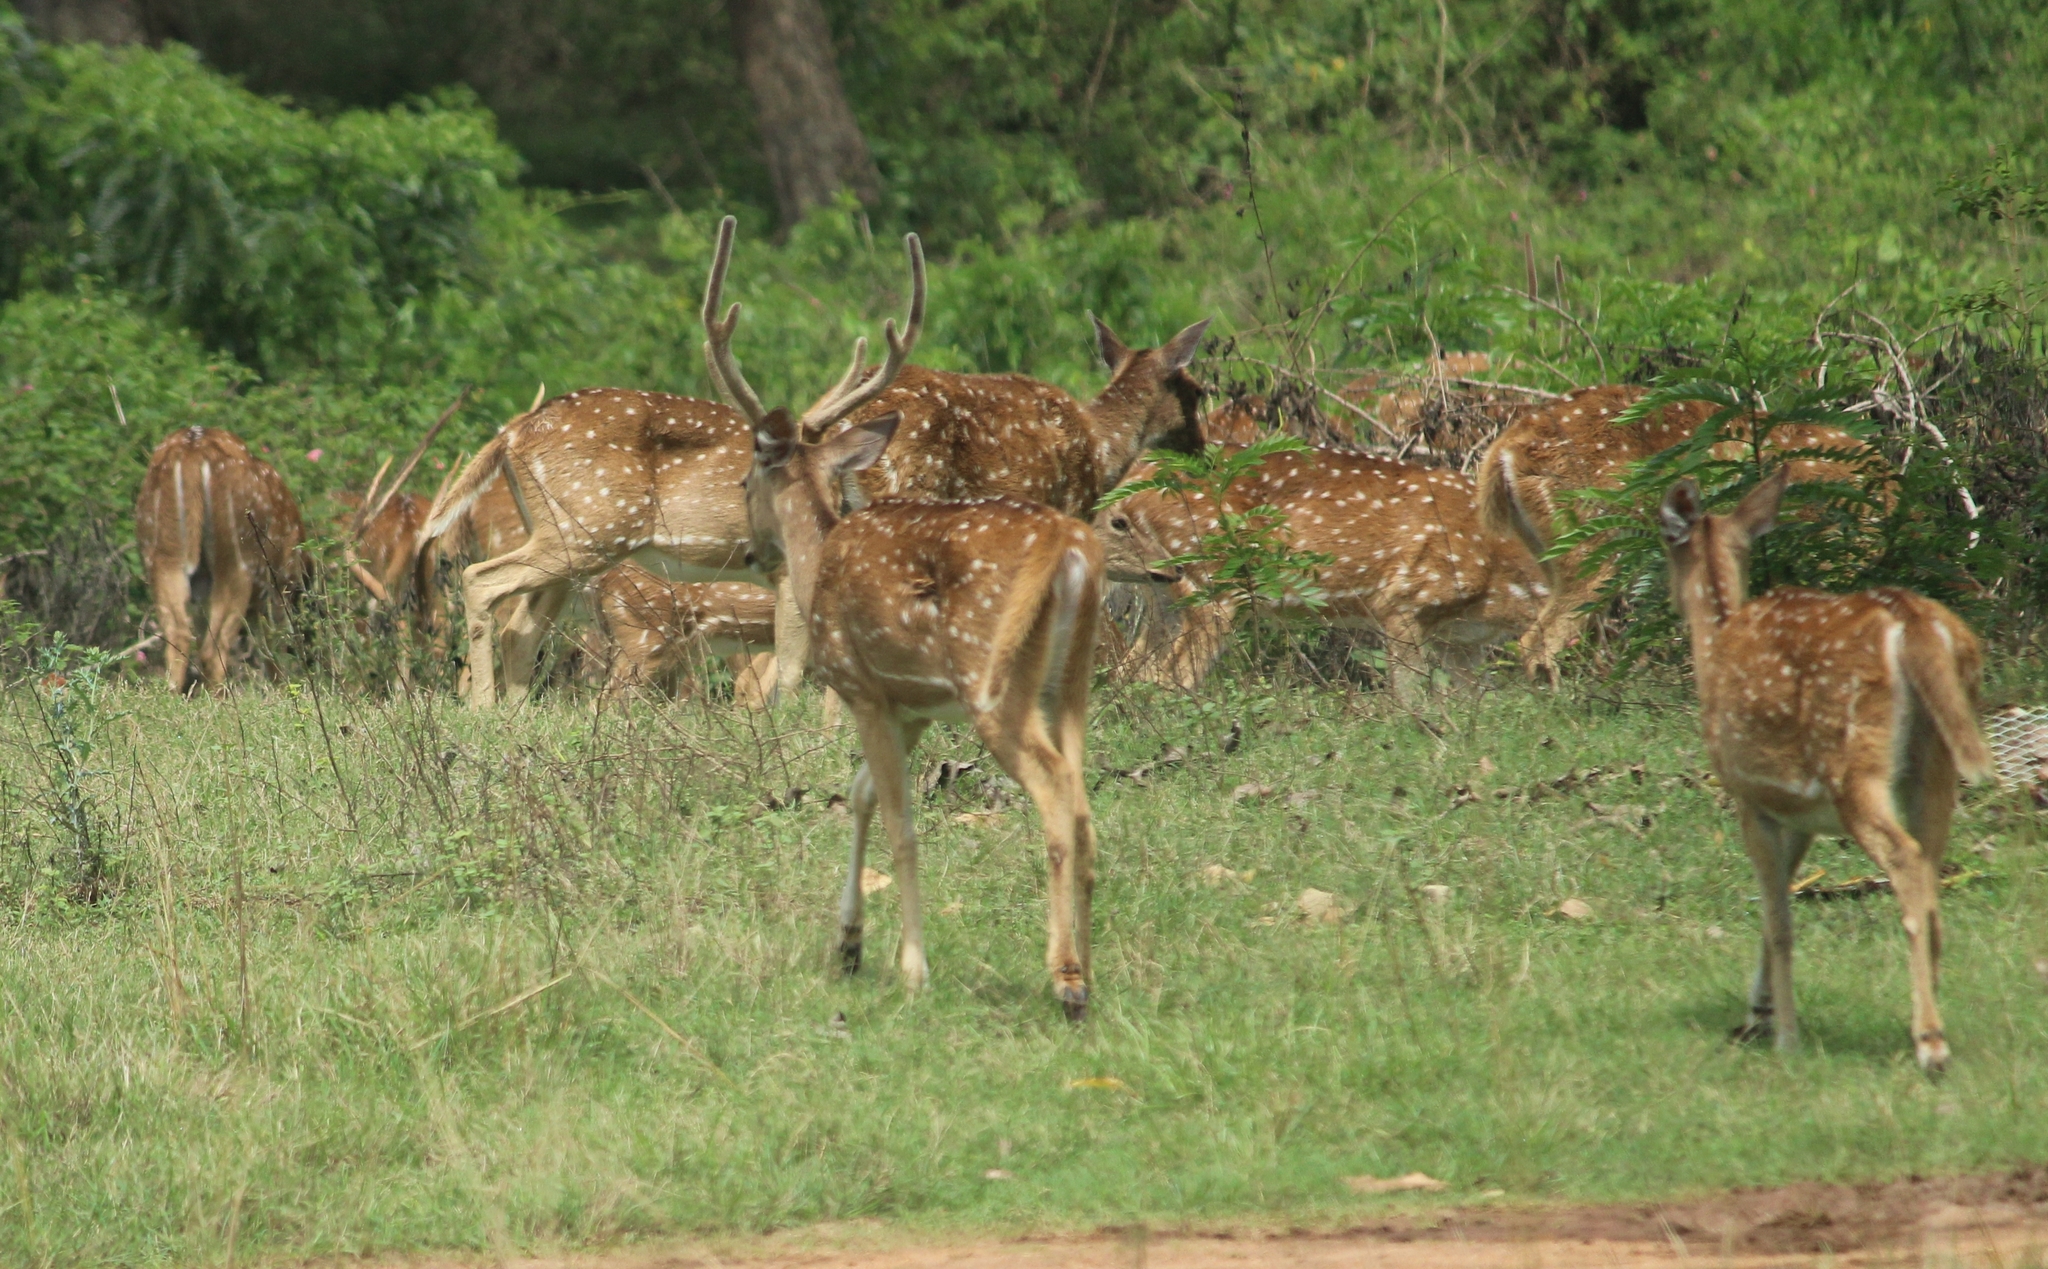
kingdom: Animalia
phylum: Chordata
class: Mammalia
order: Artiodactyla
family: Cervidae
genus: Axis
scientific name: Axis axis
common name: Chital
